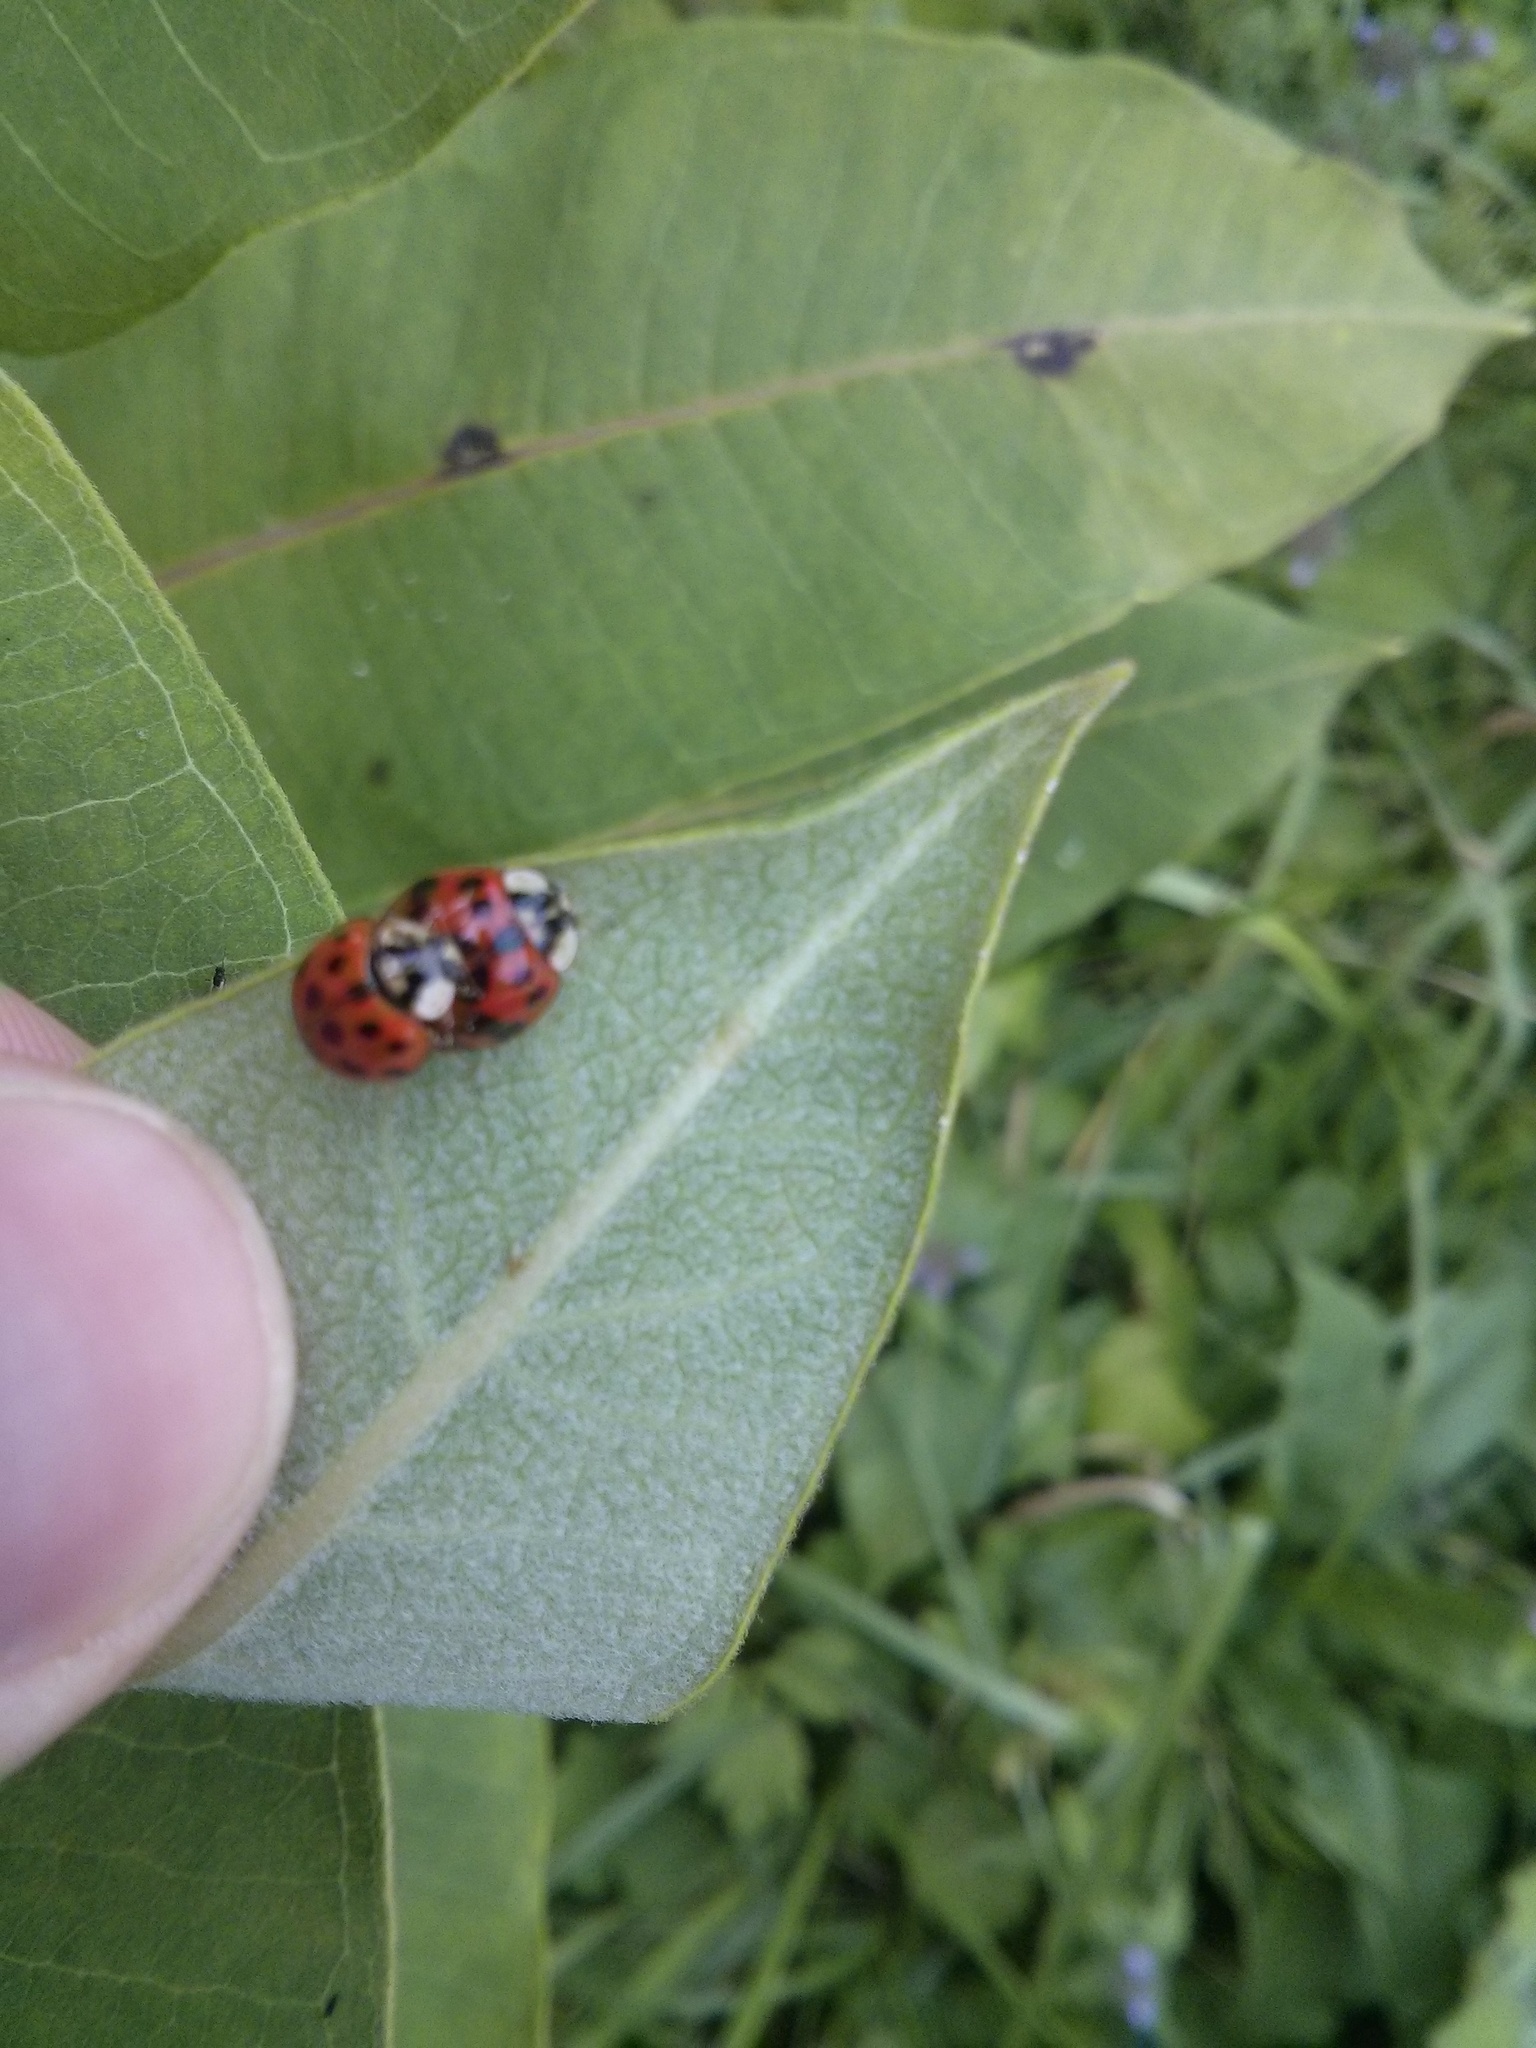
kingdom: Animalia
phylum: Arthropoda
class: Insecta
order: Coleoptera
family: Coccinellidae
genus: Harmonia
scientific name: Harmonia axyridis
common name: Harlequin ladybird
